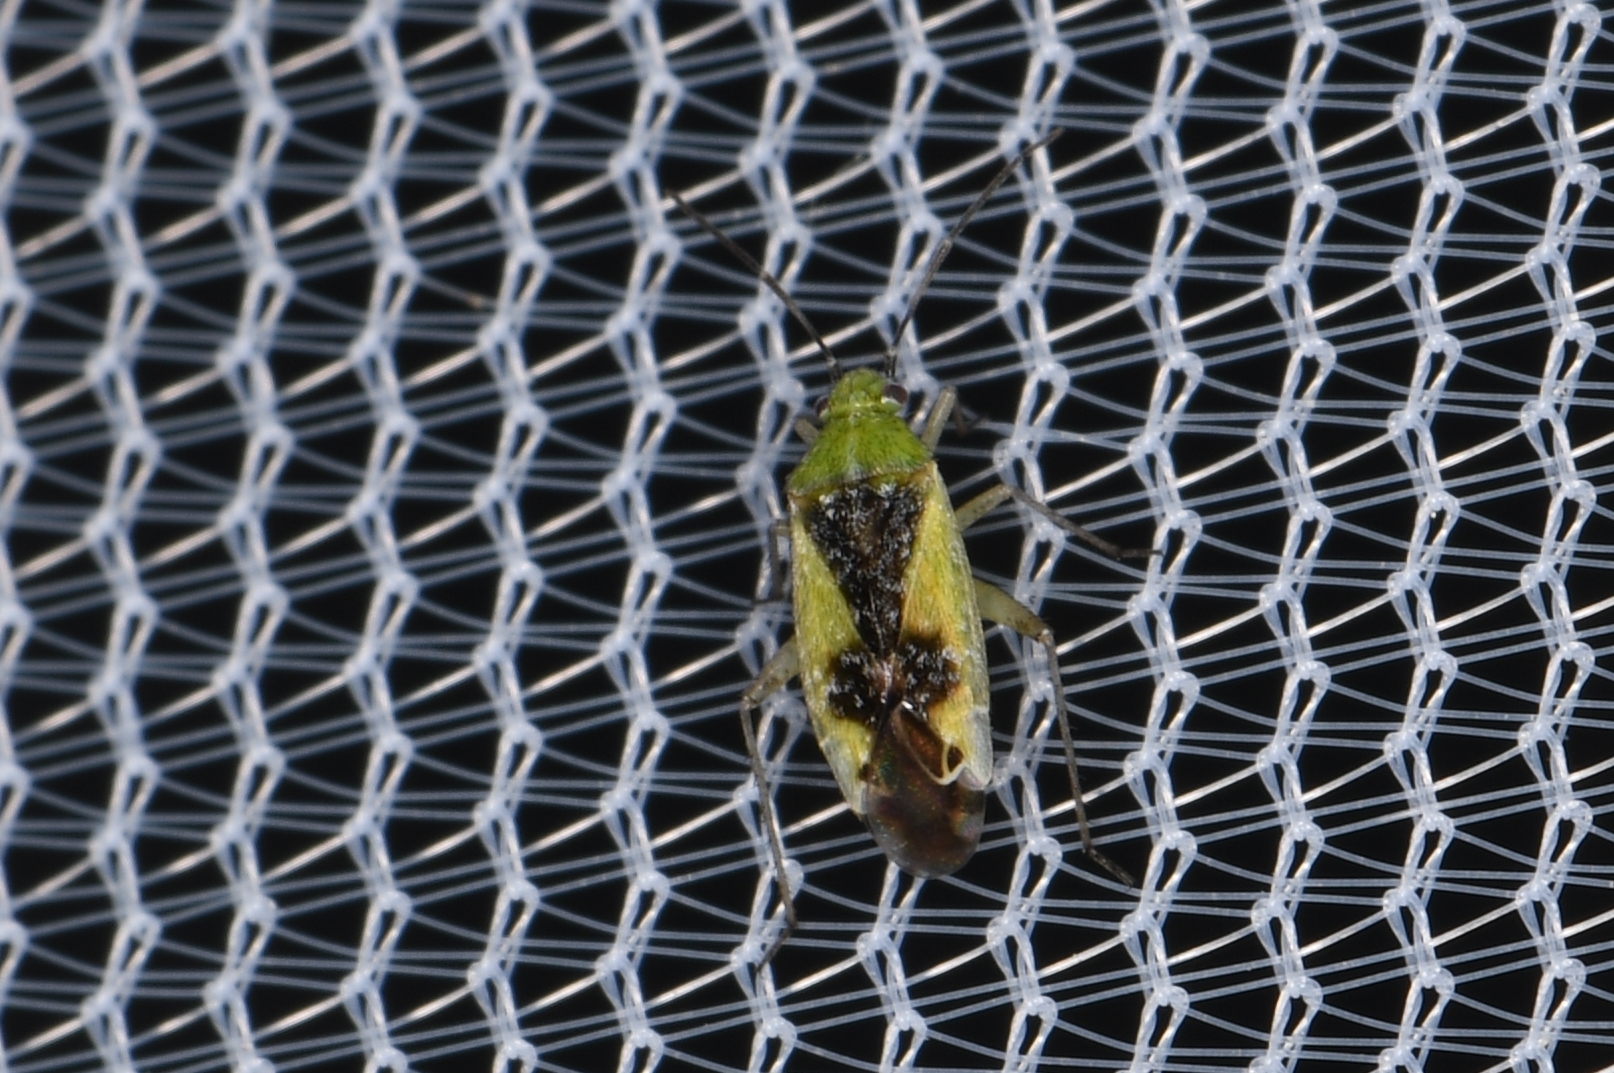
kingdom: Animalia
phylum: Arthropoda
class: Insecta
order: Hemiptera
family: Miridae
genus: Reuteroscopus
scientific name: Reuteroscopus basicornis
